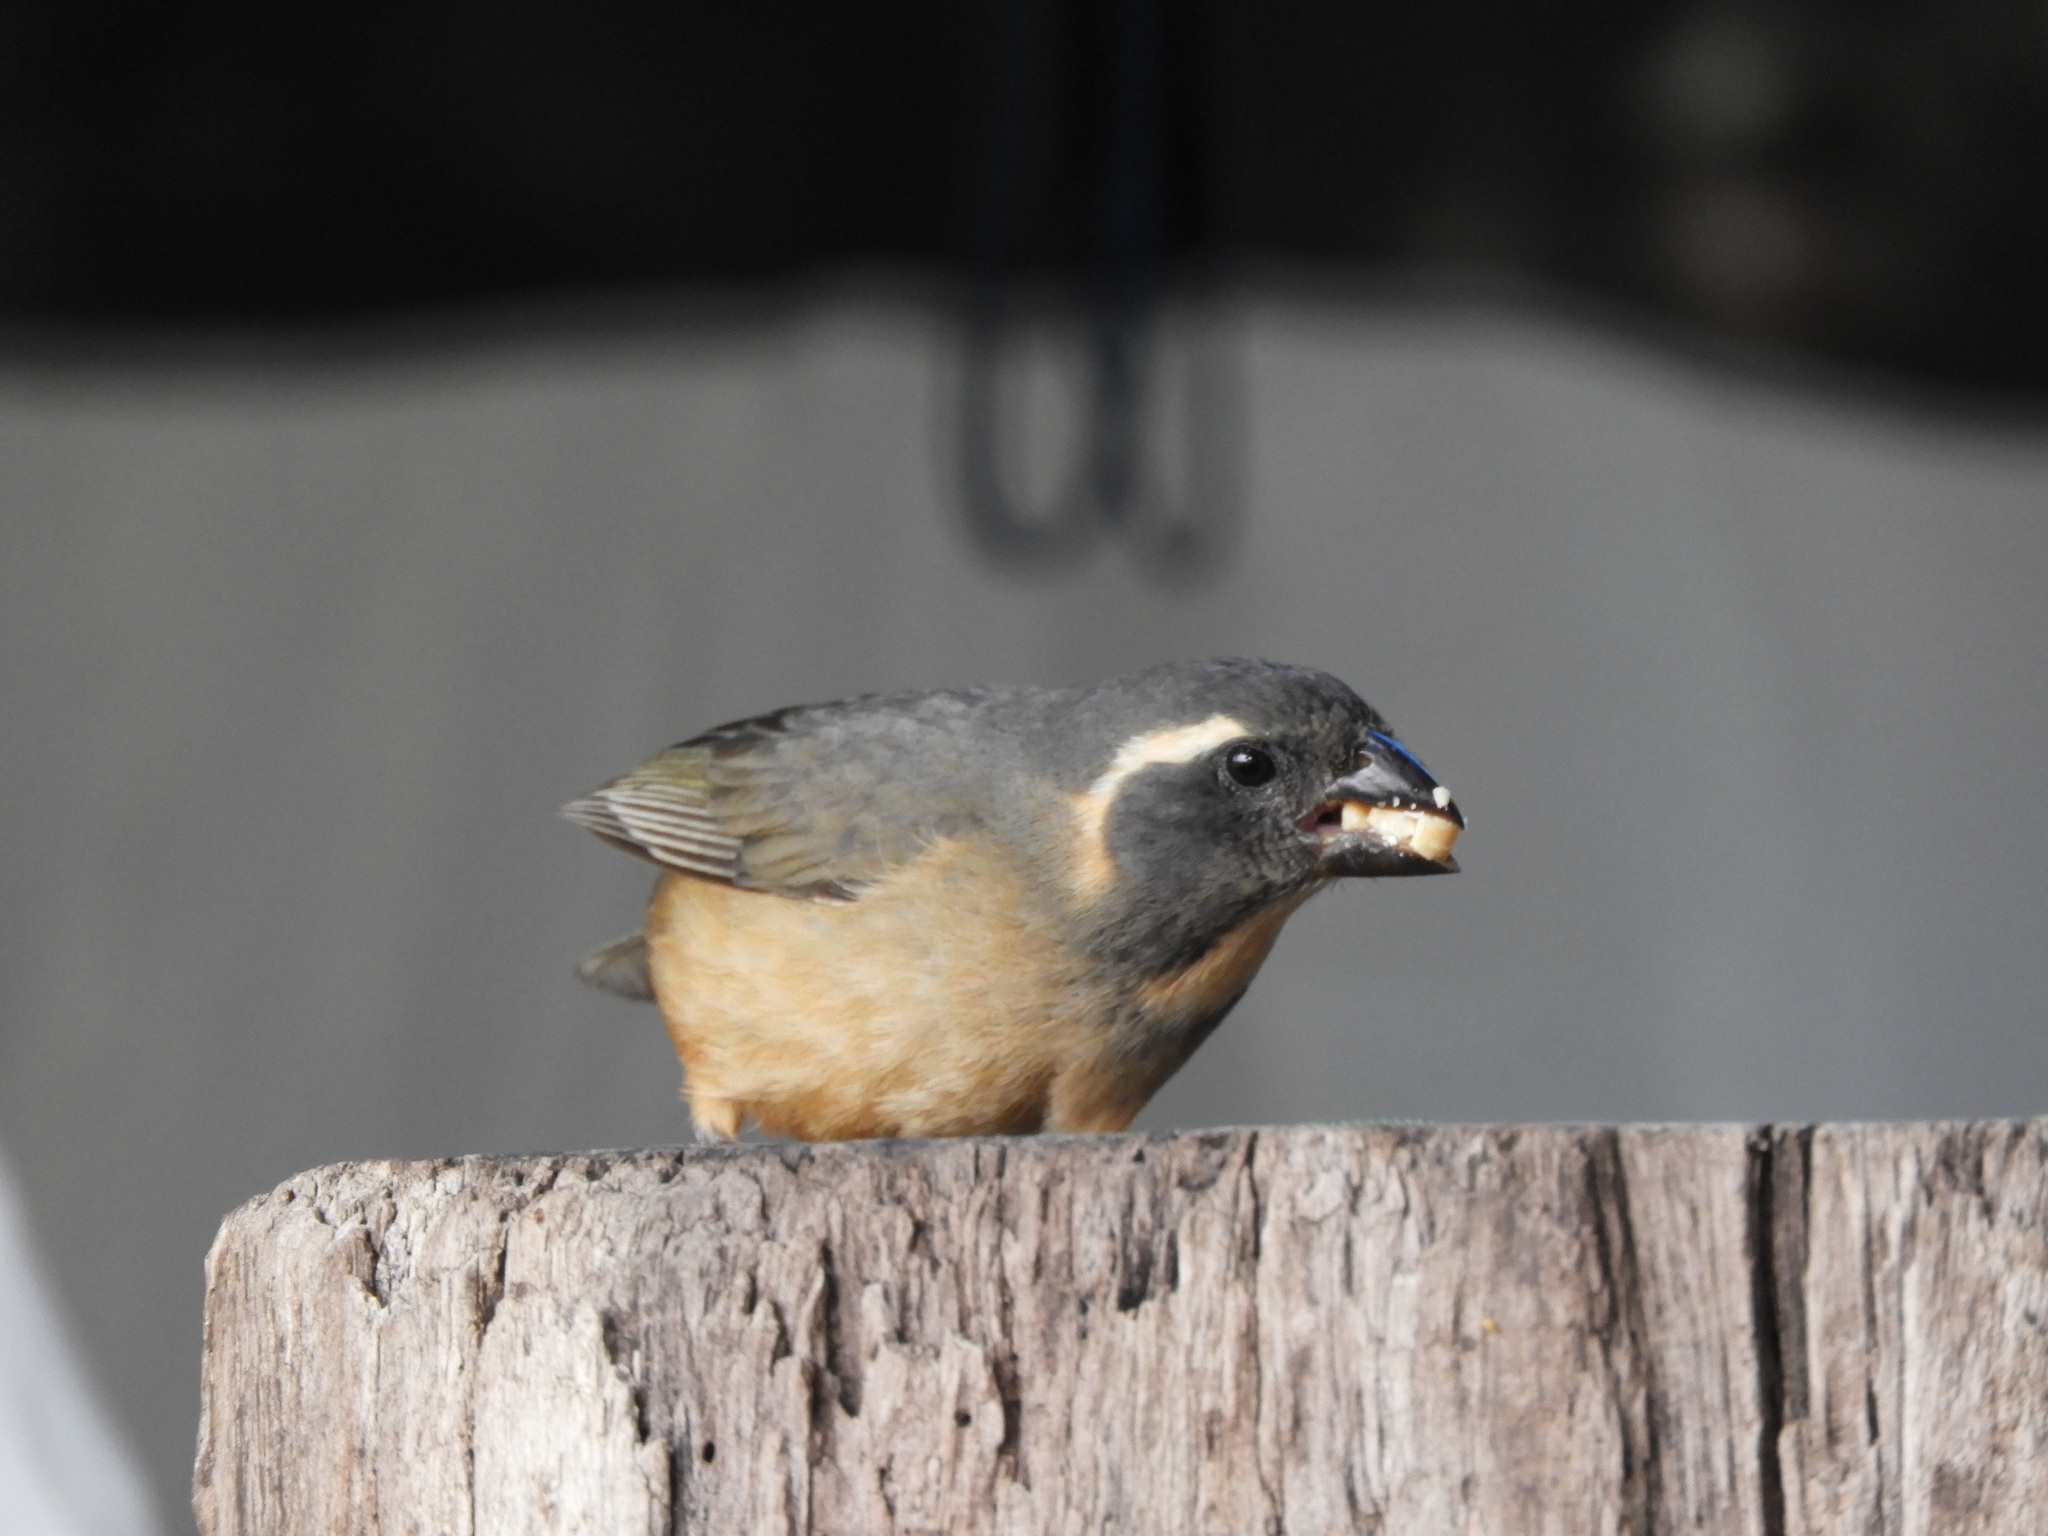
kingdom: Animalia
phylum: Chordata
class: Aves
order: Passeriformes
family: Thraupidae
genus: Saltator
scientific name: Saltator aurantiirostris
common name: Golden-billed saltator
